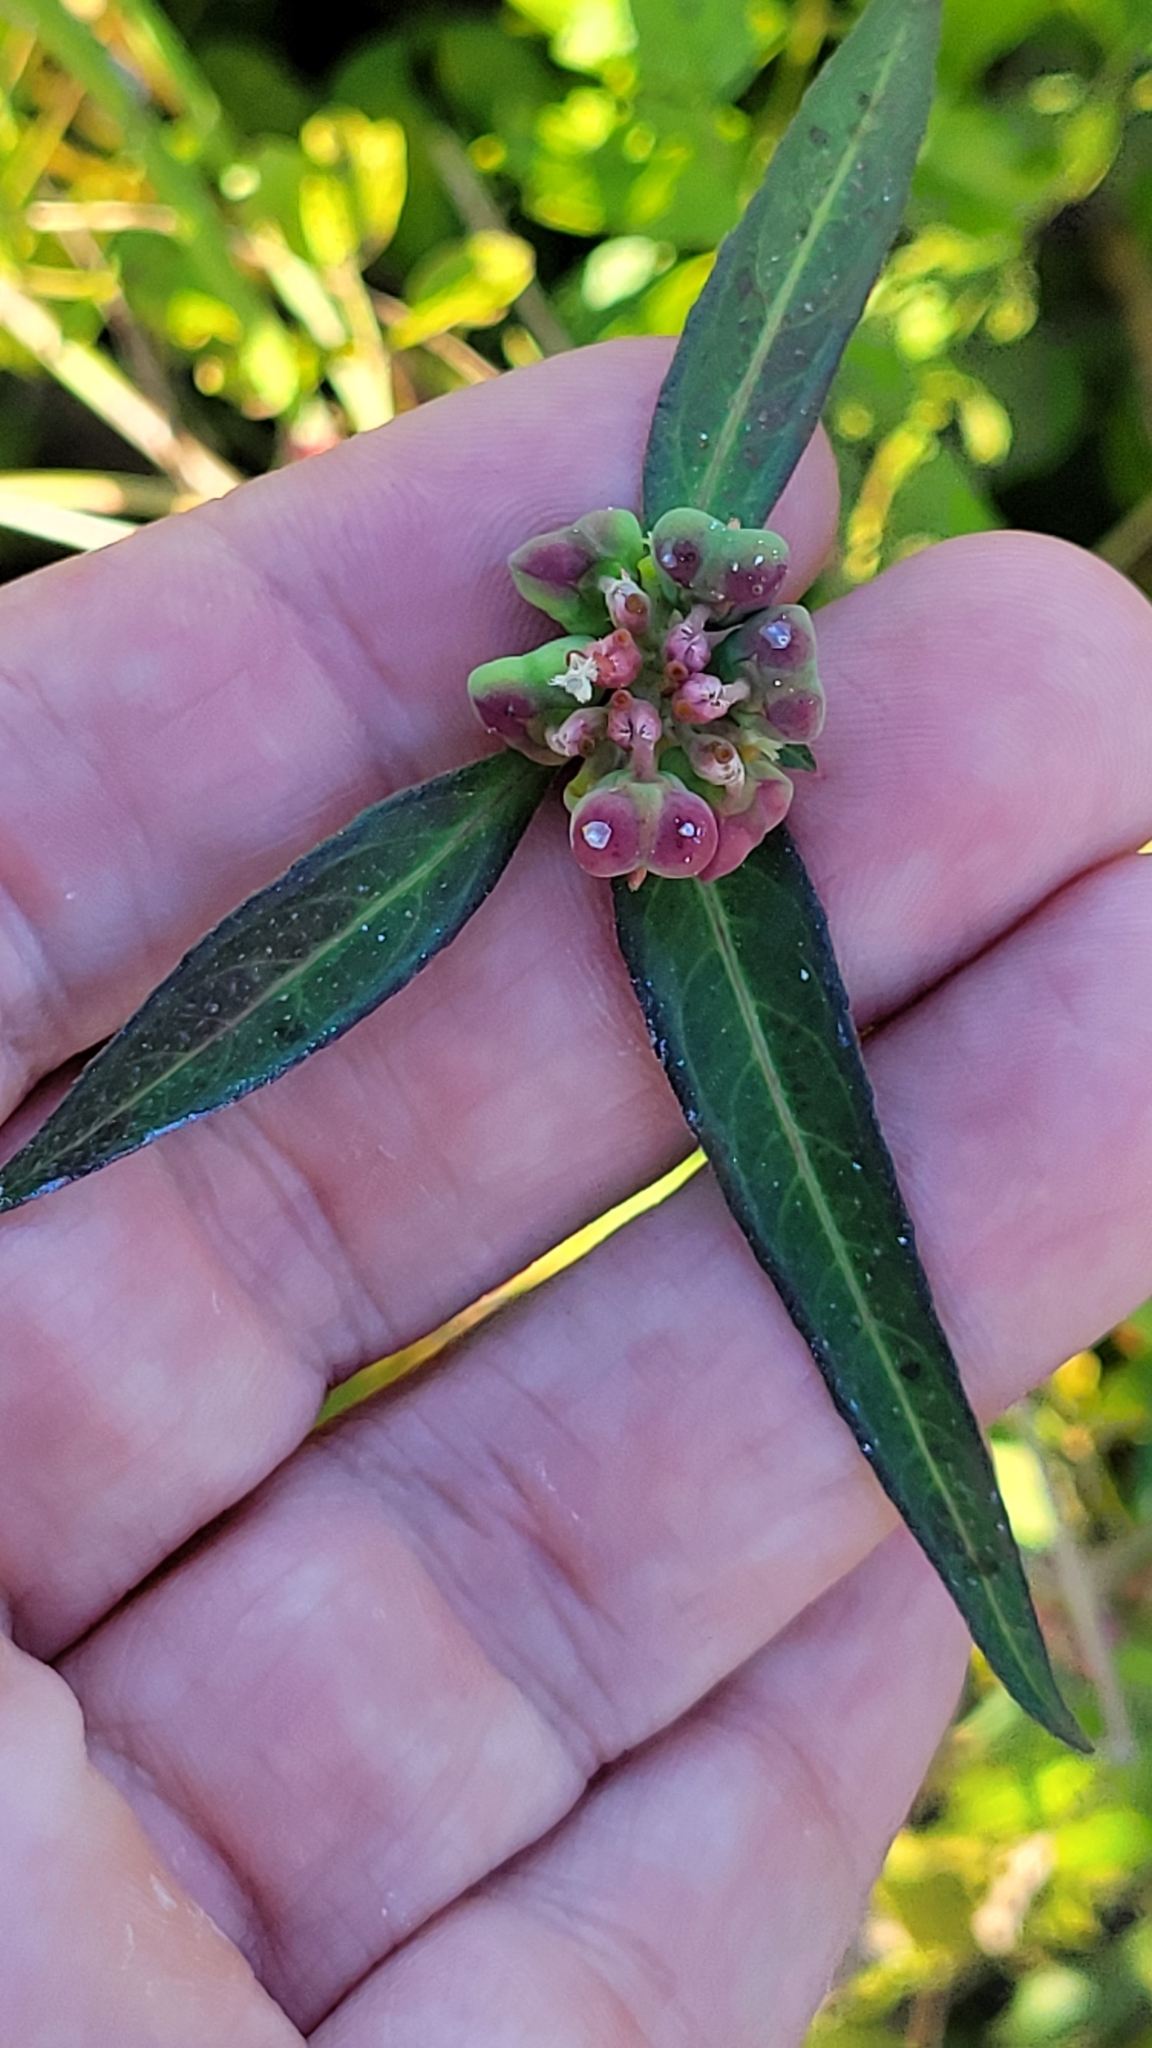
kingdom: Plantae
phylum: Tracheophyta
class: Magnoliopsida
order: Malpighiales
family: Euphorbiaceae
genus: Euphorbia
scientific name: Euphorbia heterophylla
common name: Mexican fireplant
